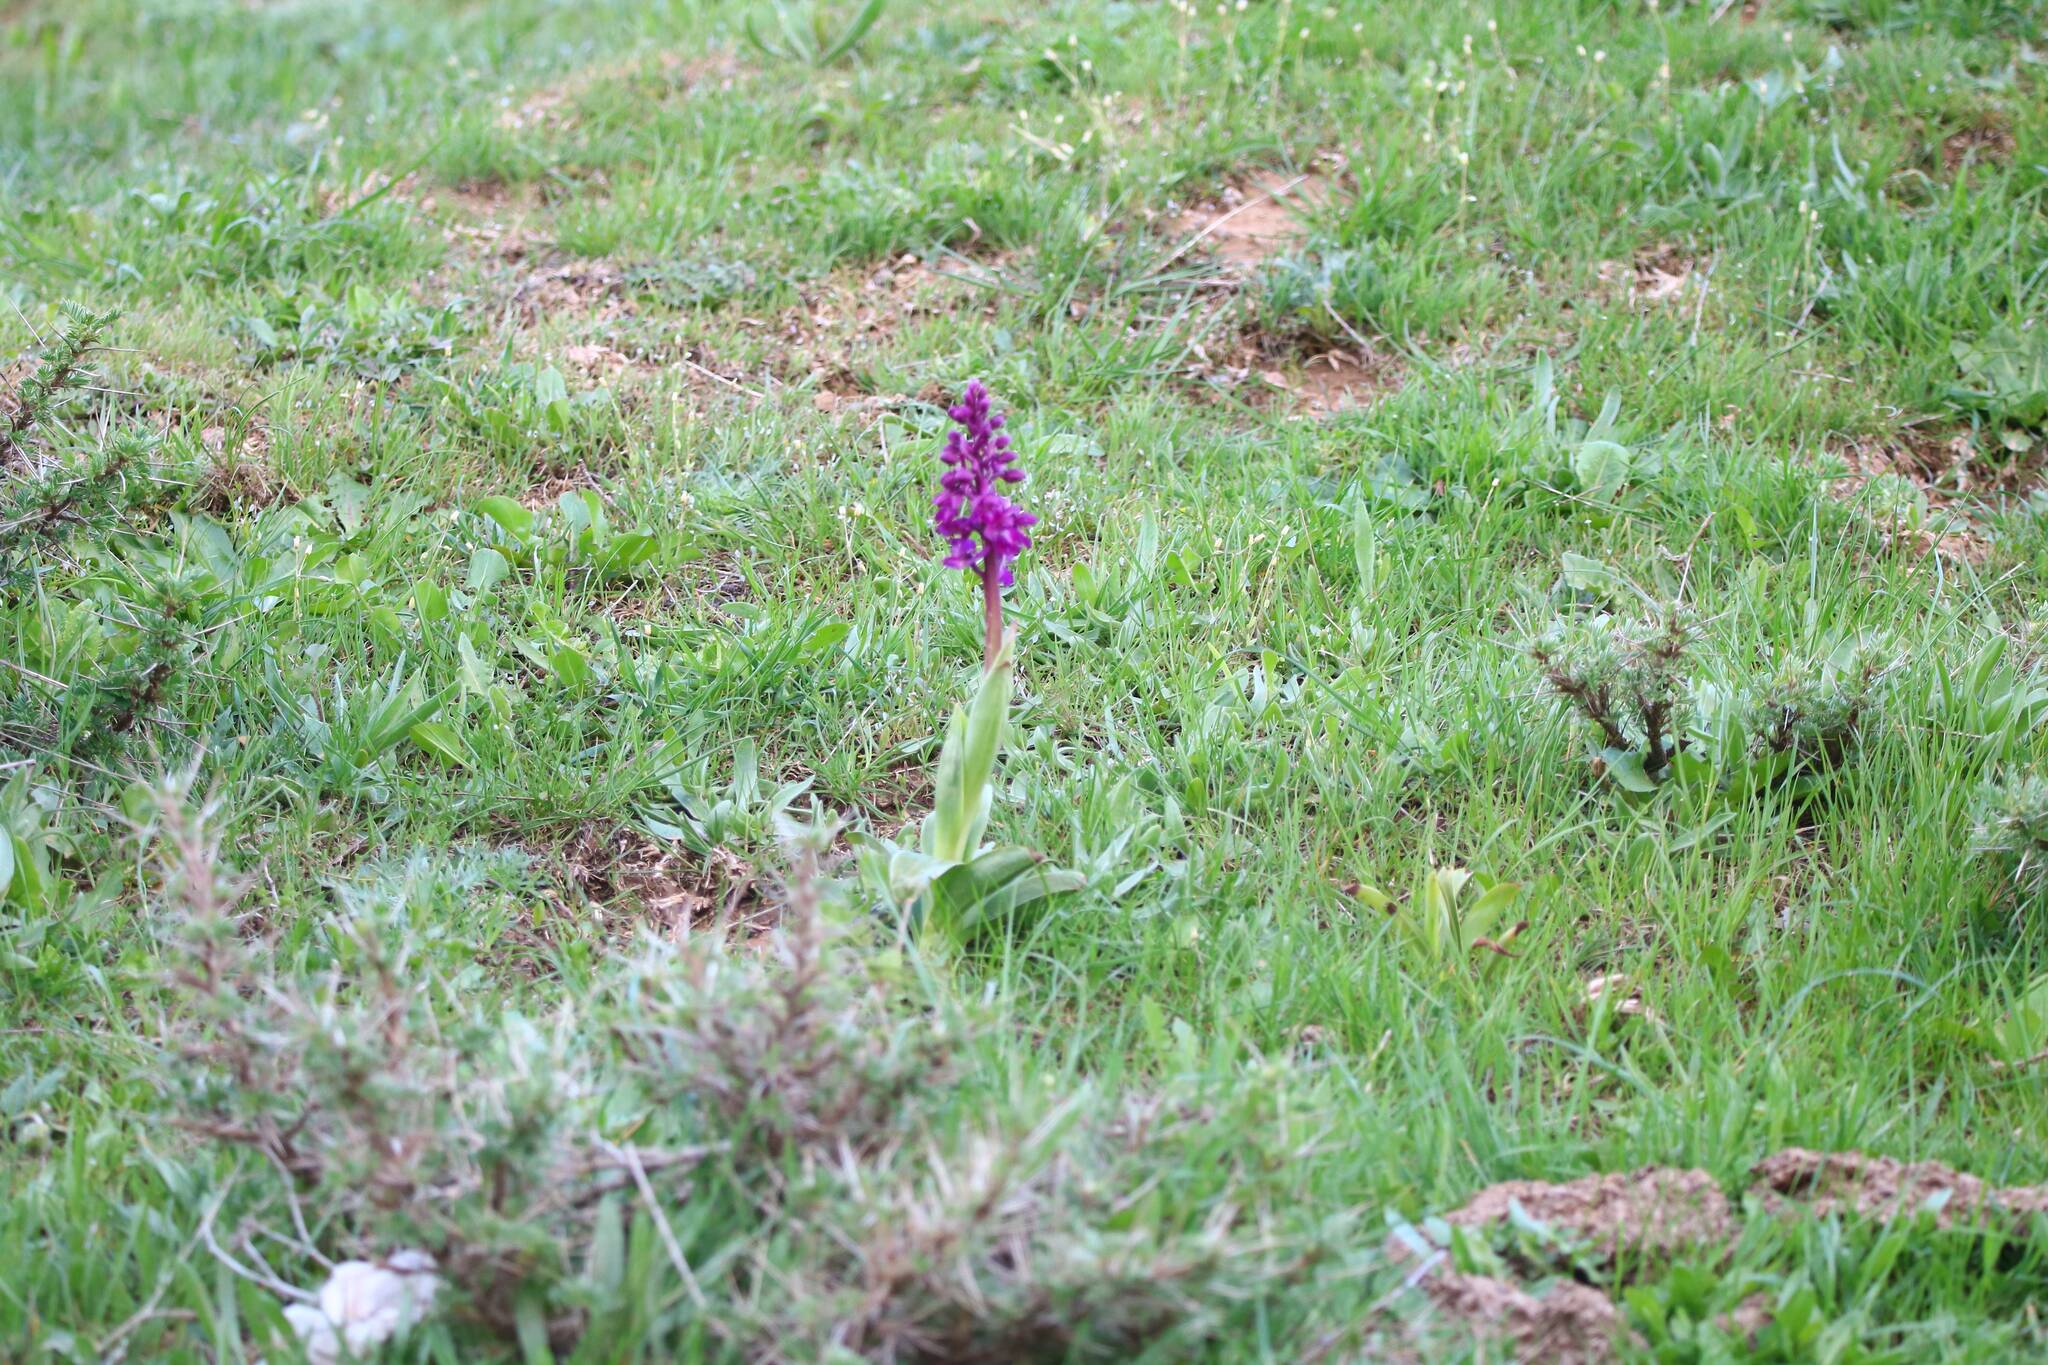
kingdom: Plantae
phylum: Tracheophyta
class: Liliopsida
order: Asparagales
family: Orchidaceae
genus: Orchis
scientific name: Orchis mascula
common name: Early-purple orchid
